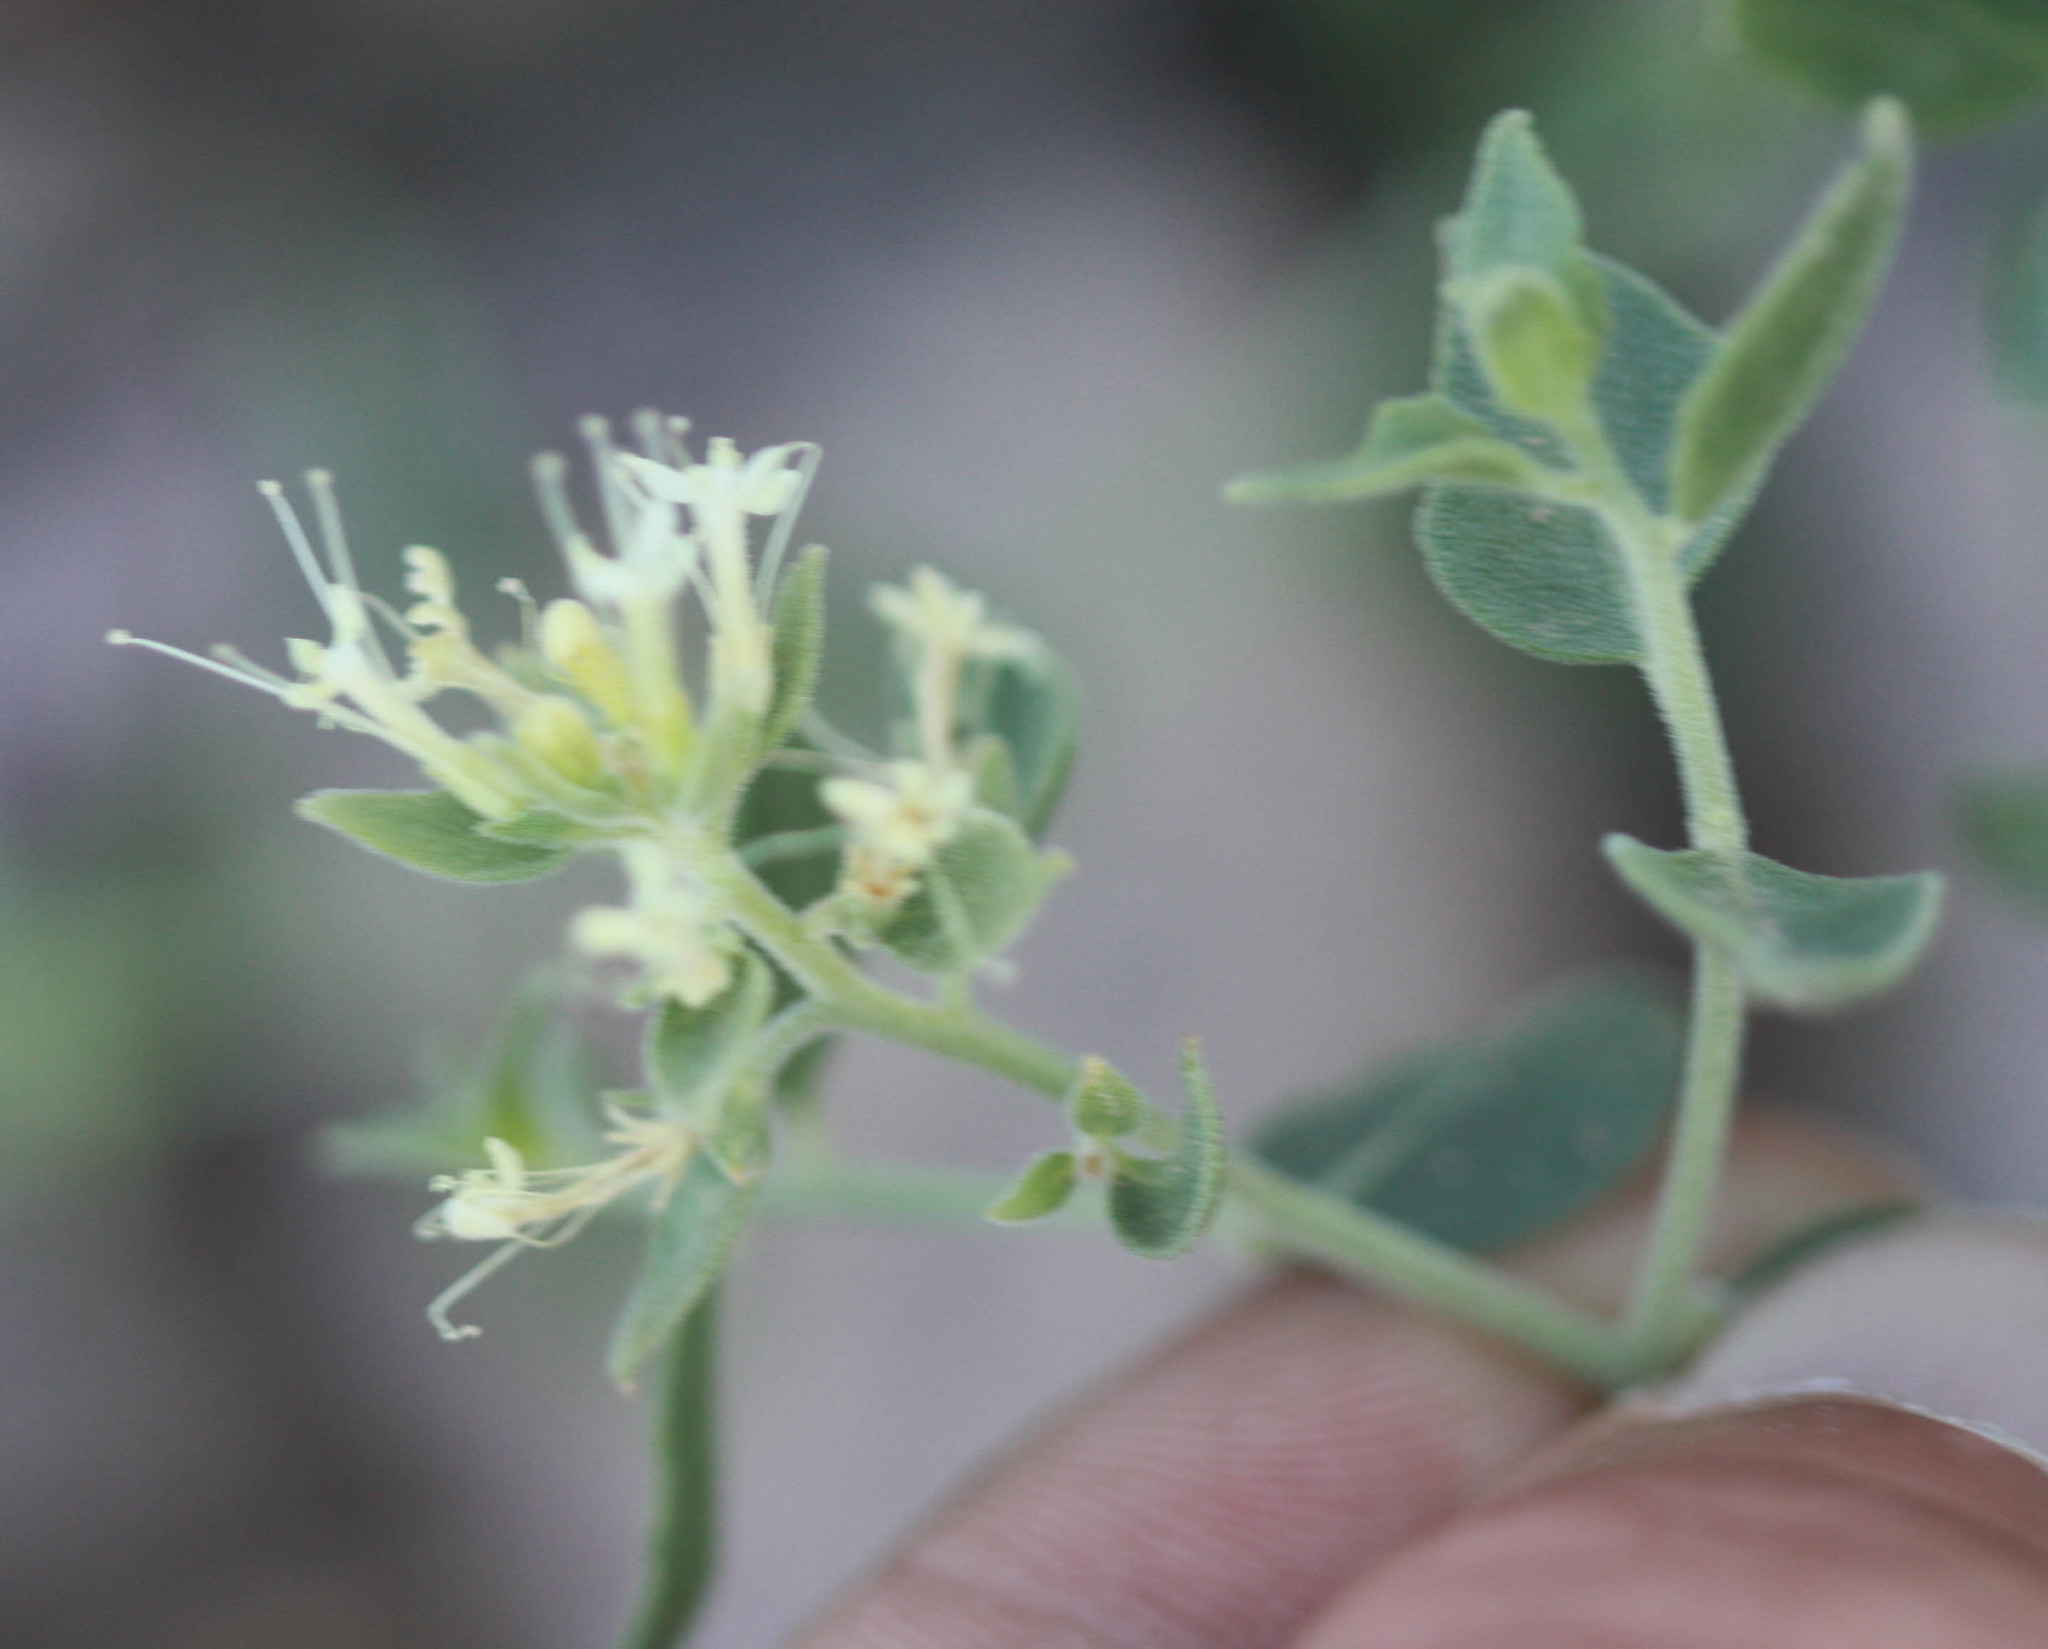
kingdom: Plantae
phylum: Tracheophyta
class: Magnoliopsida
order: Cornales
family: Loasaceae
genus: Petalonyx
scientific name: Petalonyx nitidus
